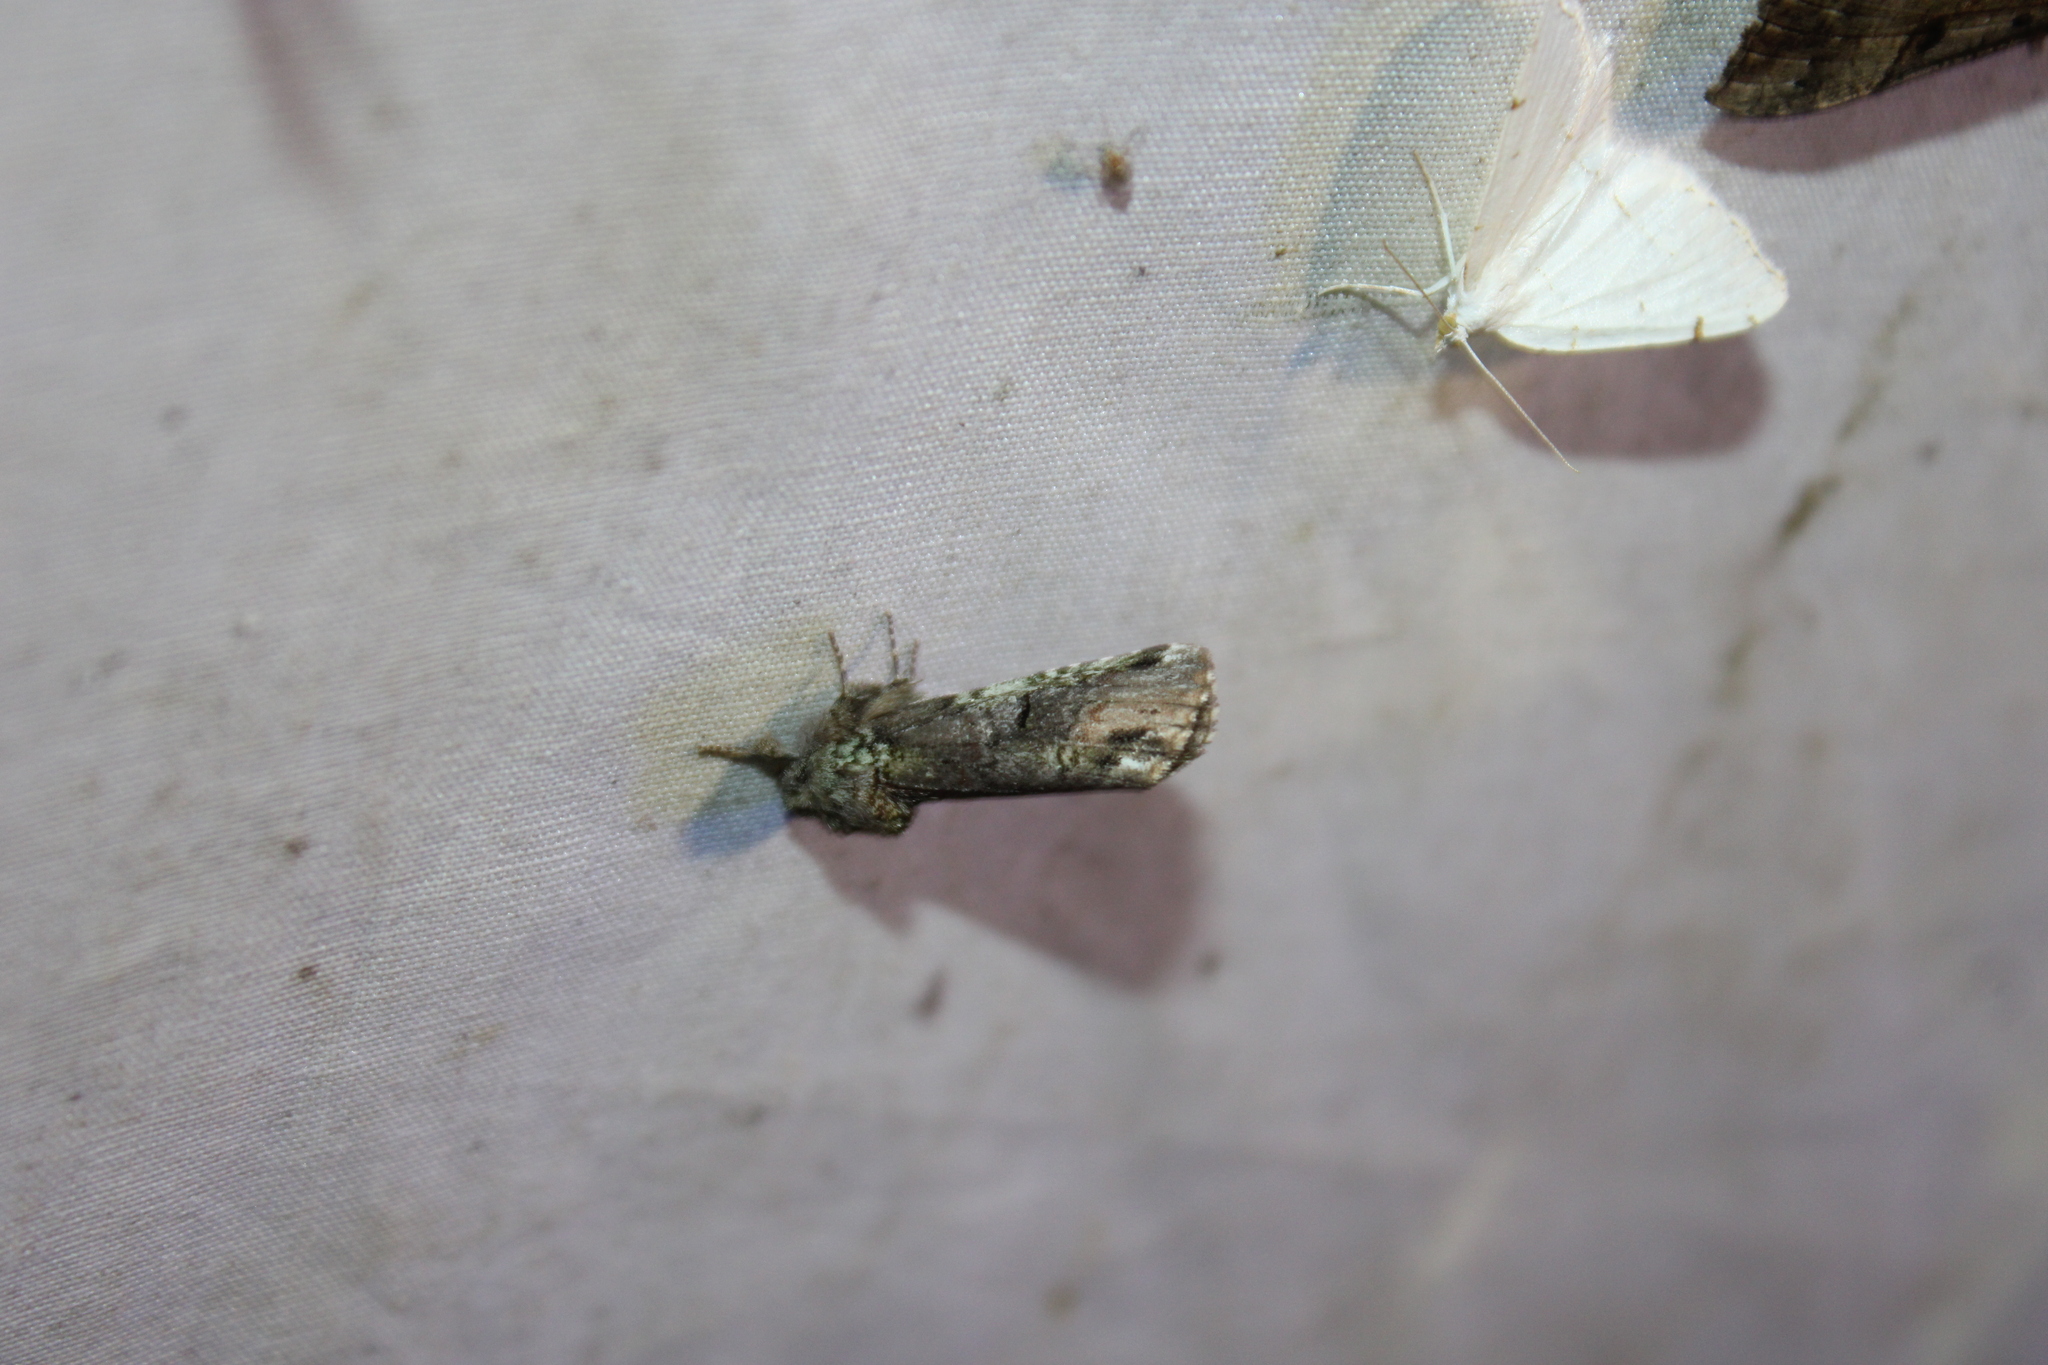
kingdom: Animalia
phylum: Arthropoda
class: Insecta
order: Lepidoptera
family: Notodontidae
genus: Schizura
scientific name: Schizura
